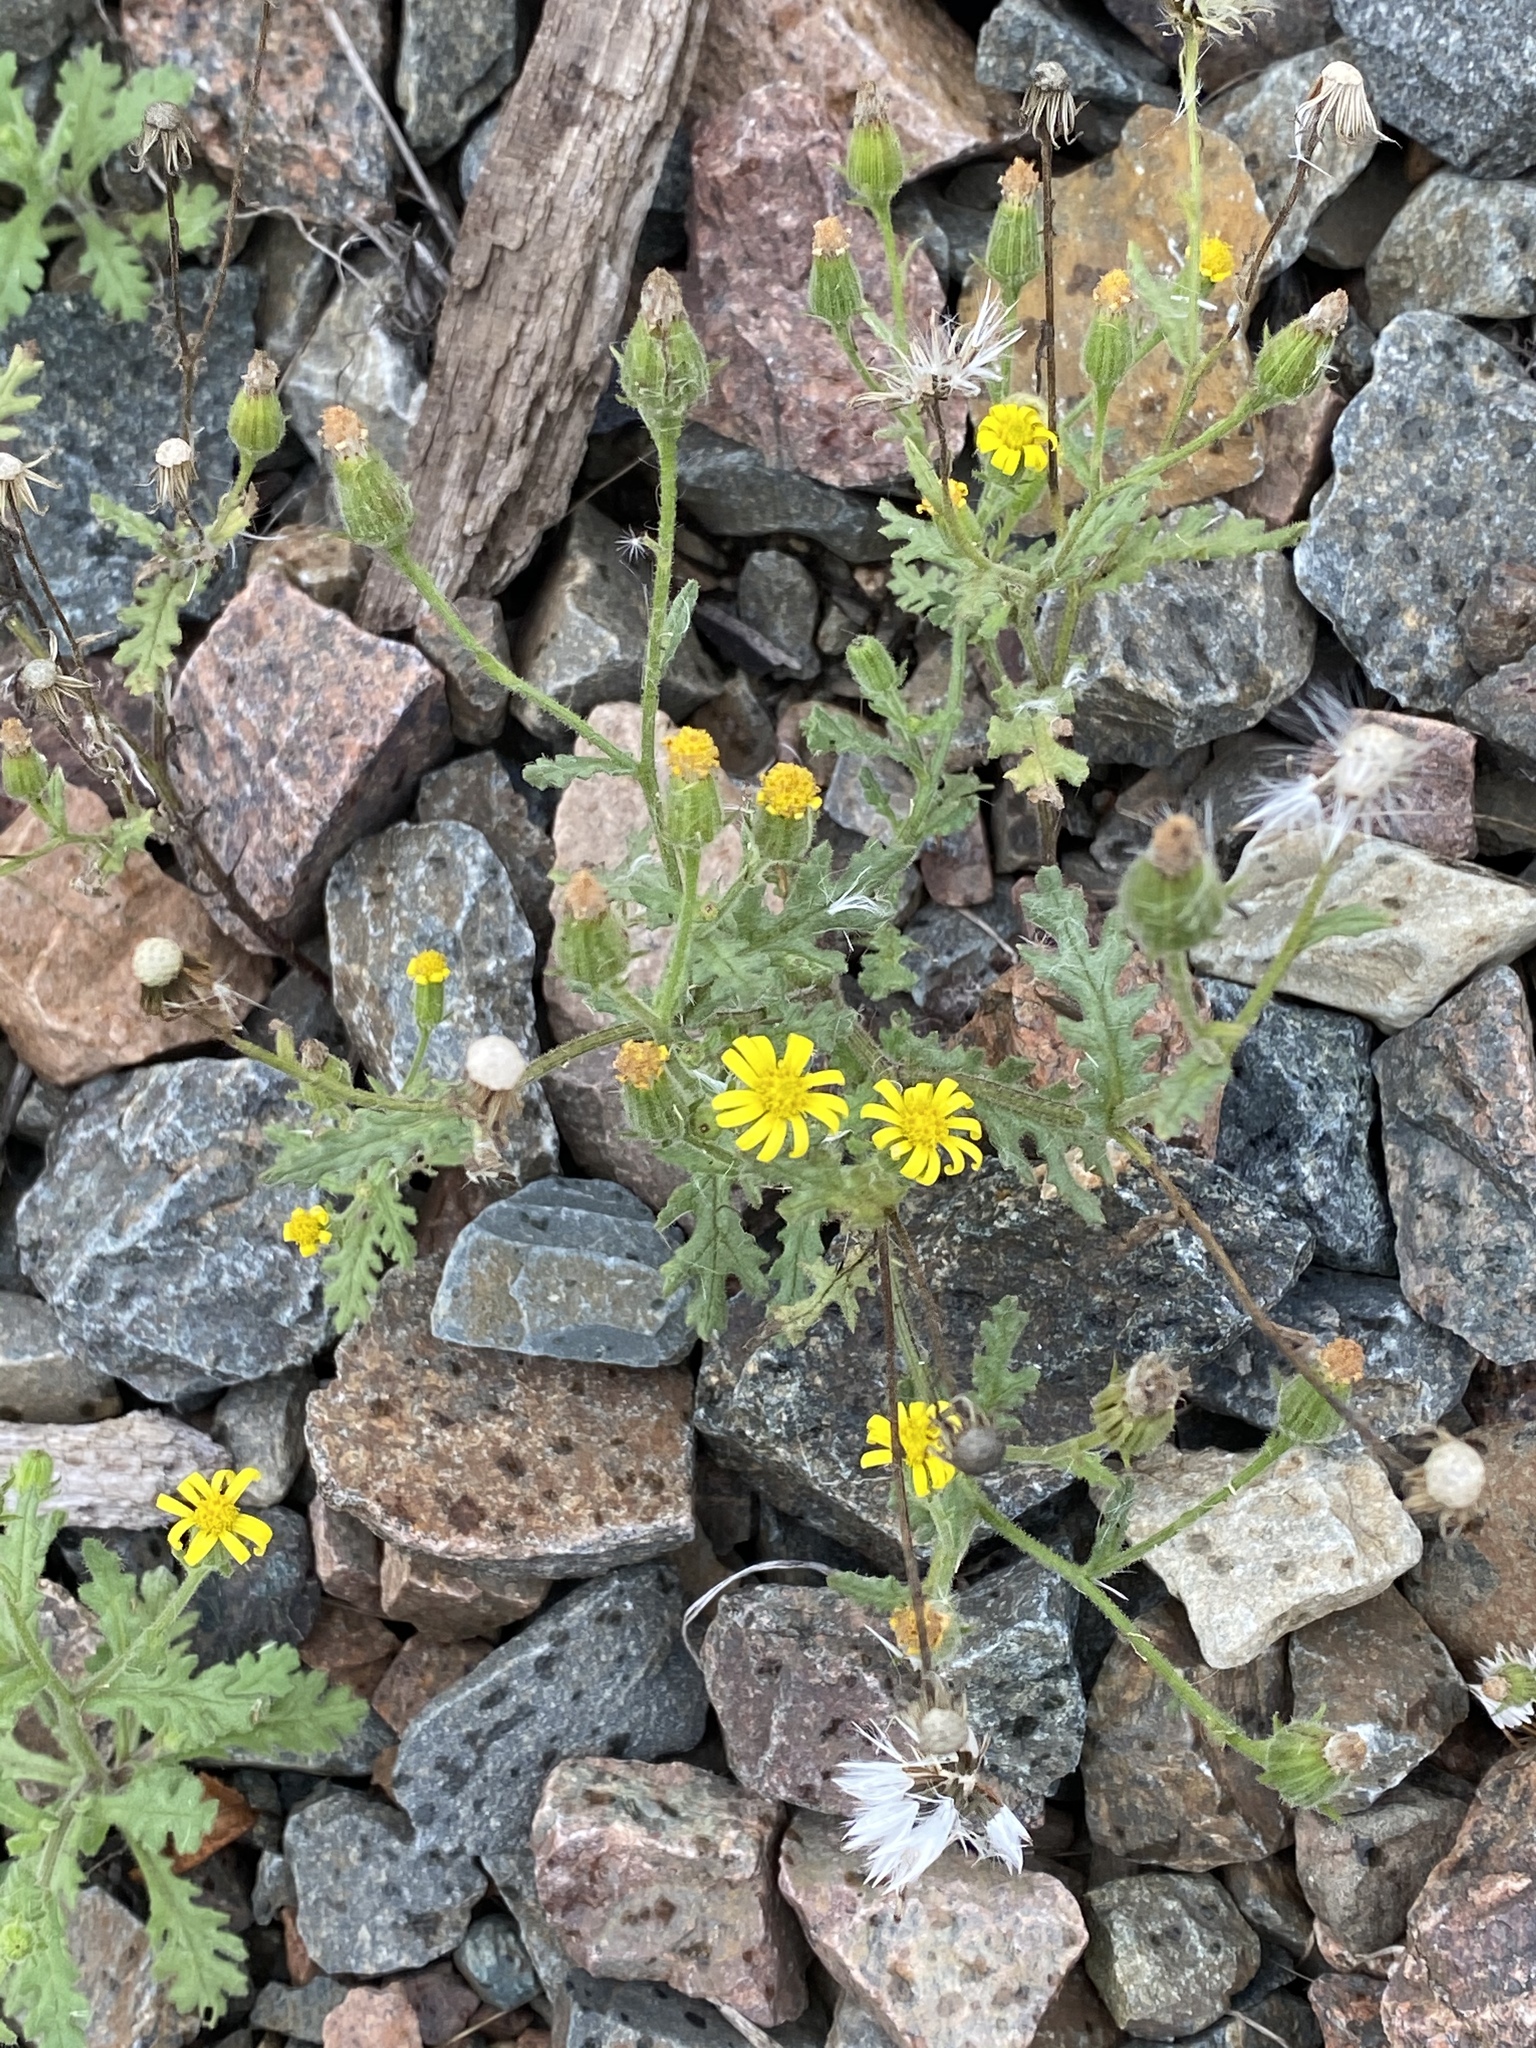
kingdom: Plantae
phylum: Tracheophyta
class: Magnoliopsida
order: Asterales
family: Asteraceae
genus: Senecio
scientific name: Senecio viscosus
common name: Sticky groundsel
